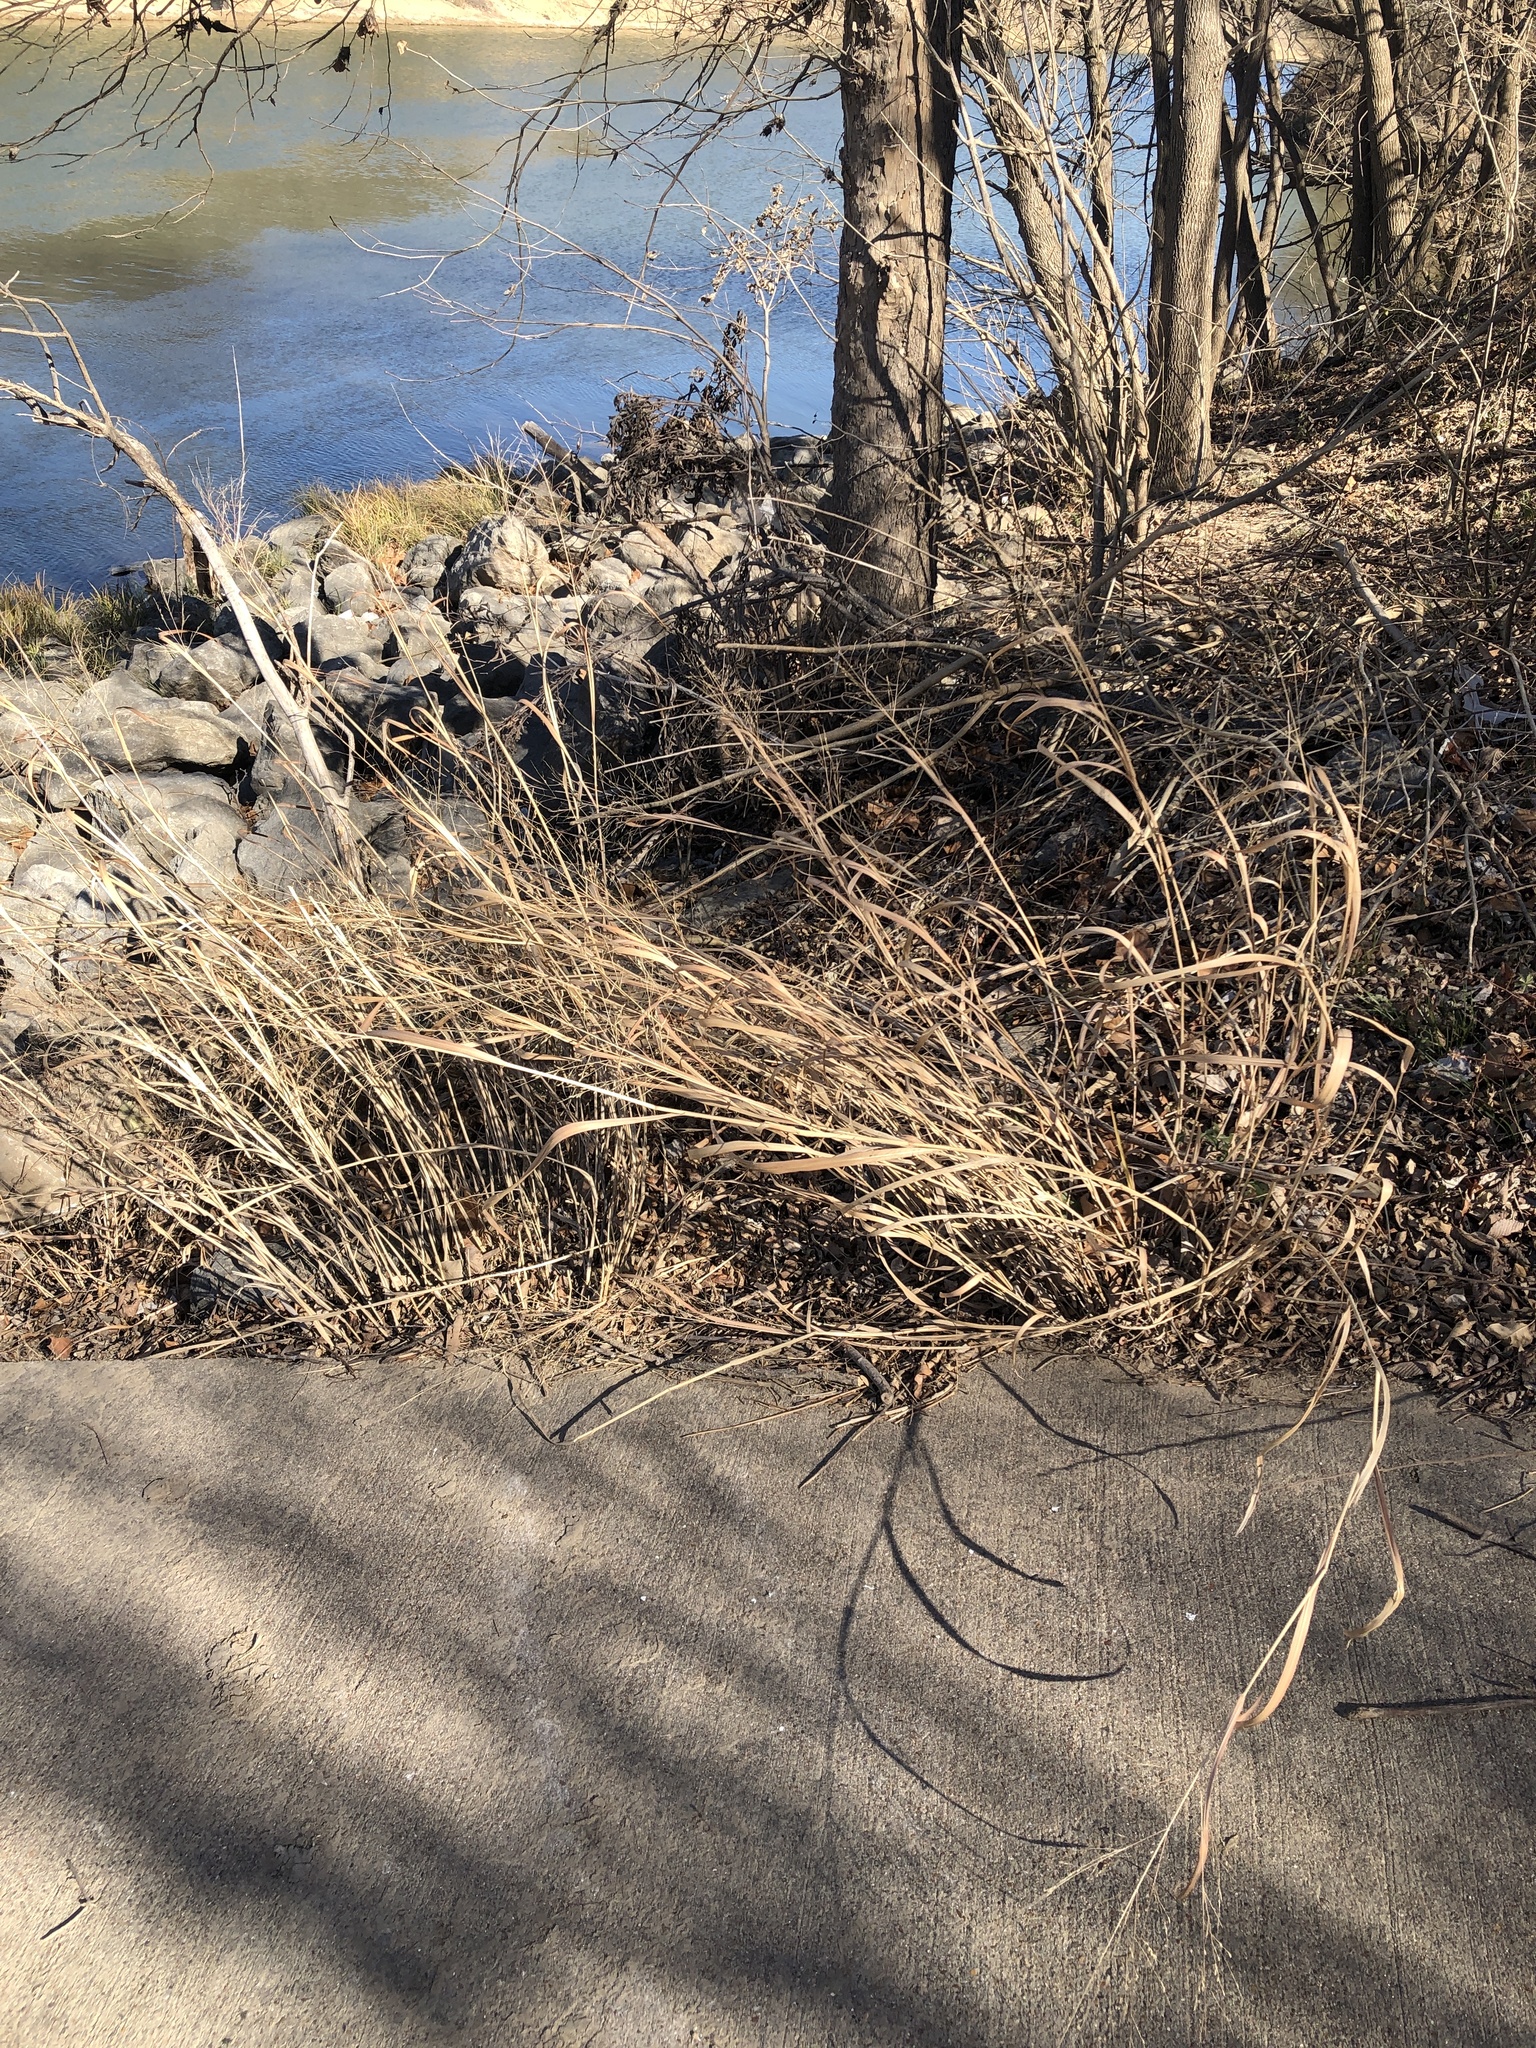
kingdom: Plantae
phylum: Tracheophyta
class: Liliopsida
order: Poales
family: Poaceae
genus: Panicum
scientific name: Panicum virgatum
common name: Switchgrass
